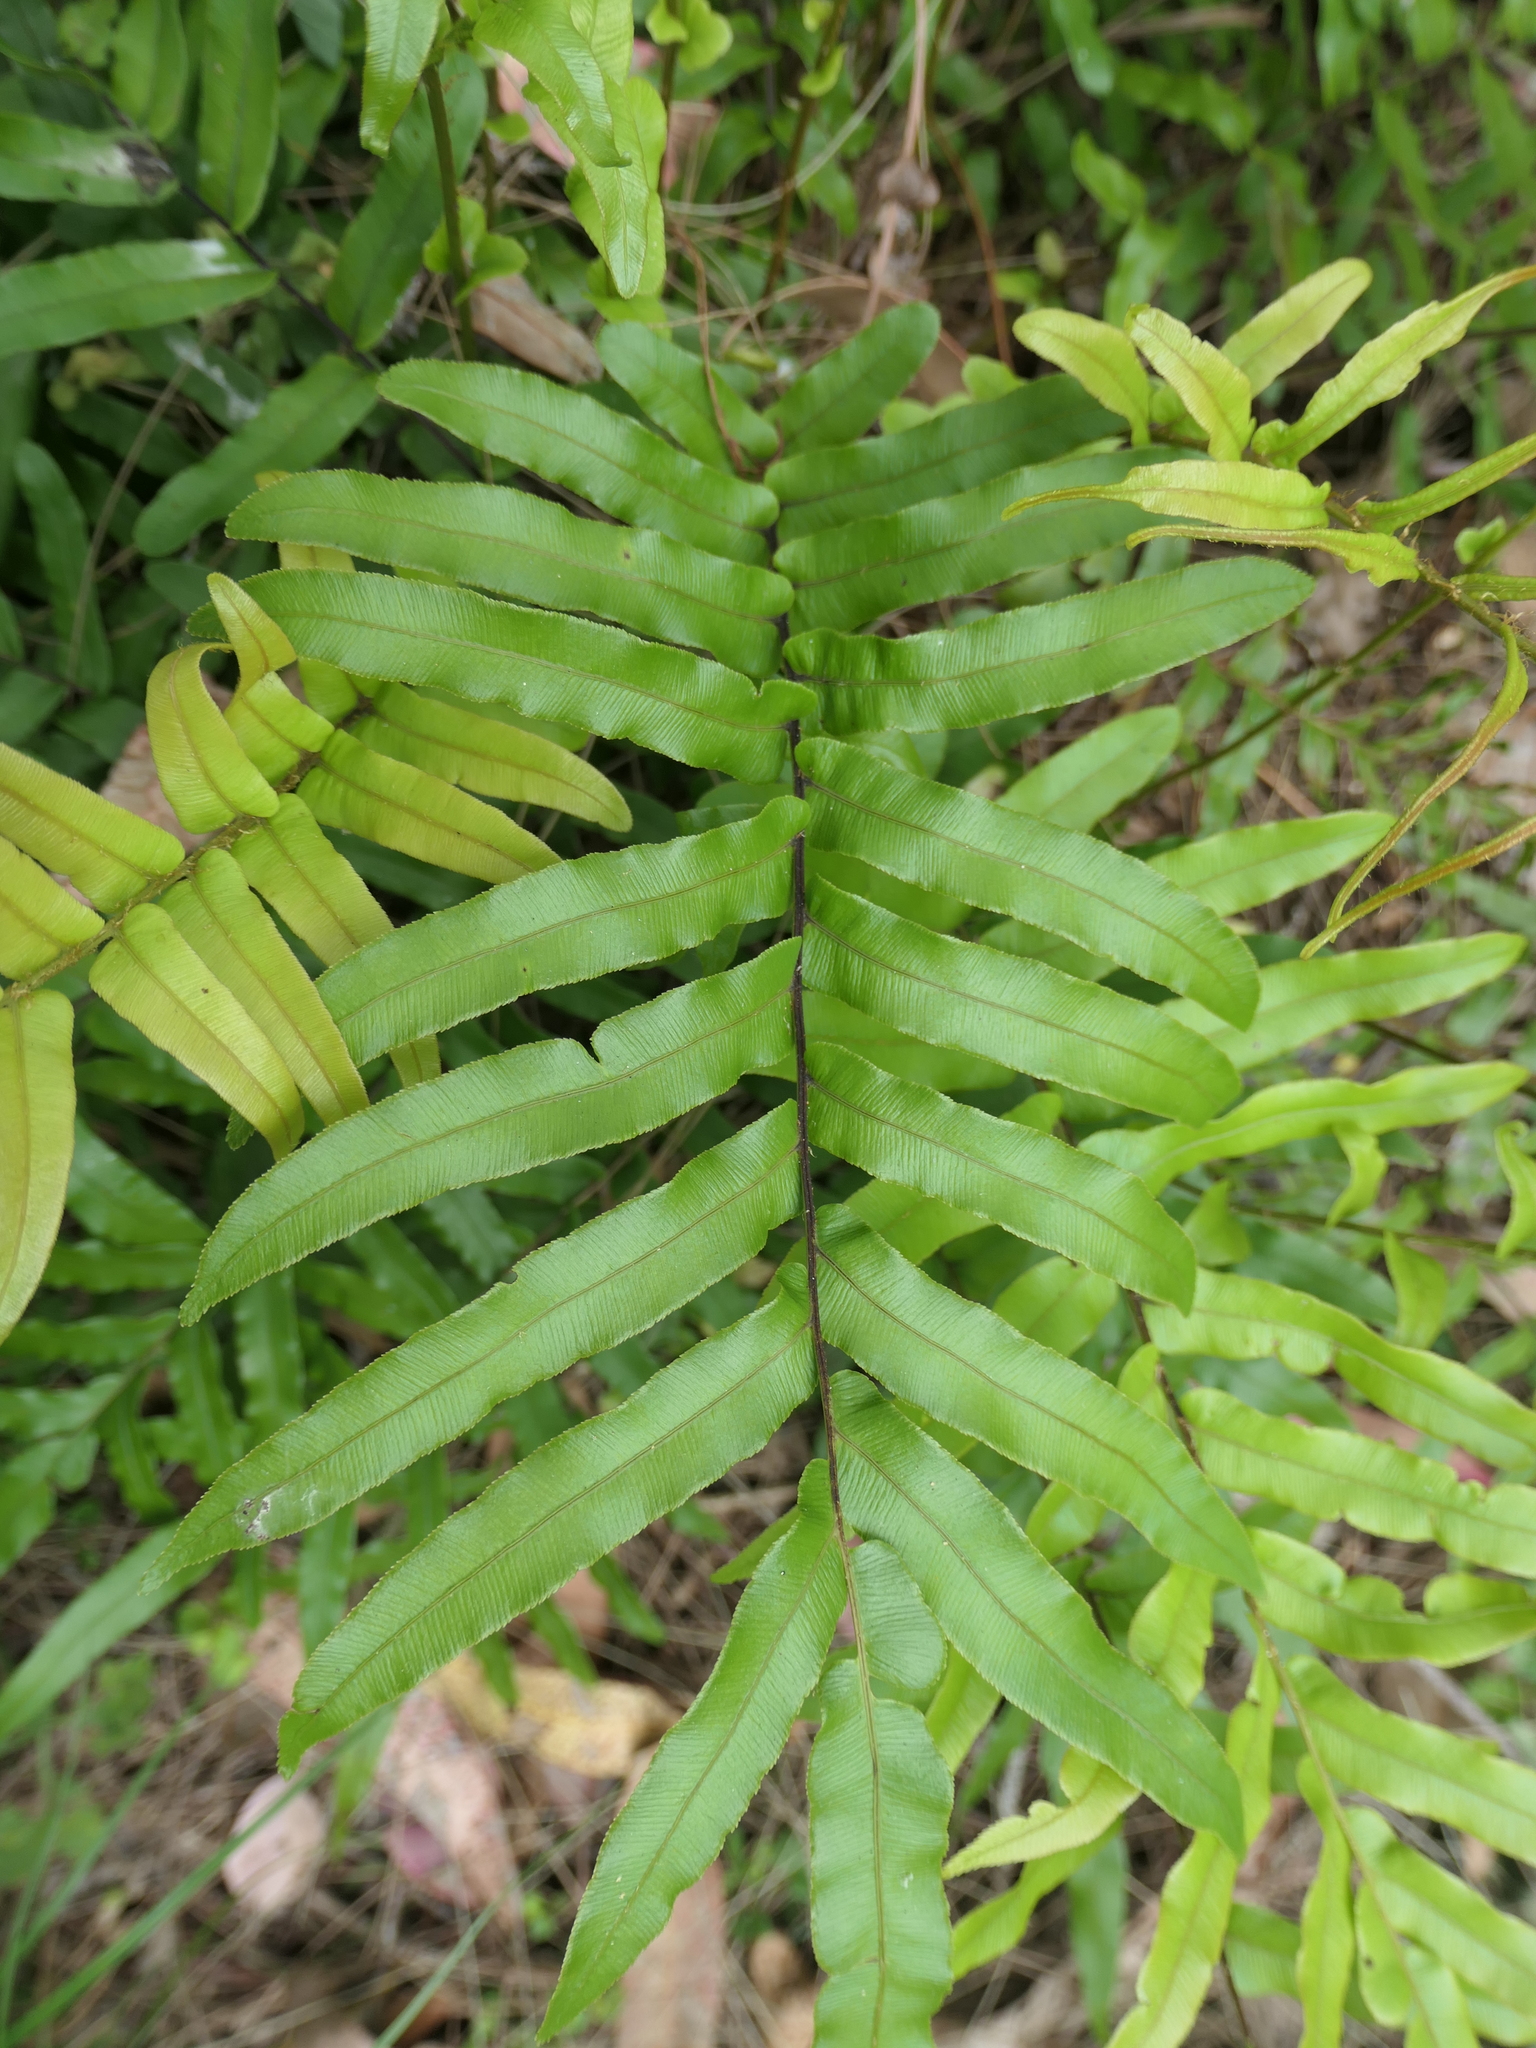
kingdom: Plantae
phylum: Tracheophyta
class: Polypodiopsida
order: Polypodiales
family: Blechnaceae
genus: Parablechnum
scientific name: Parablechnum minus
